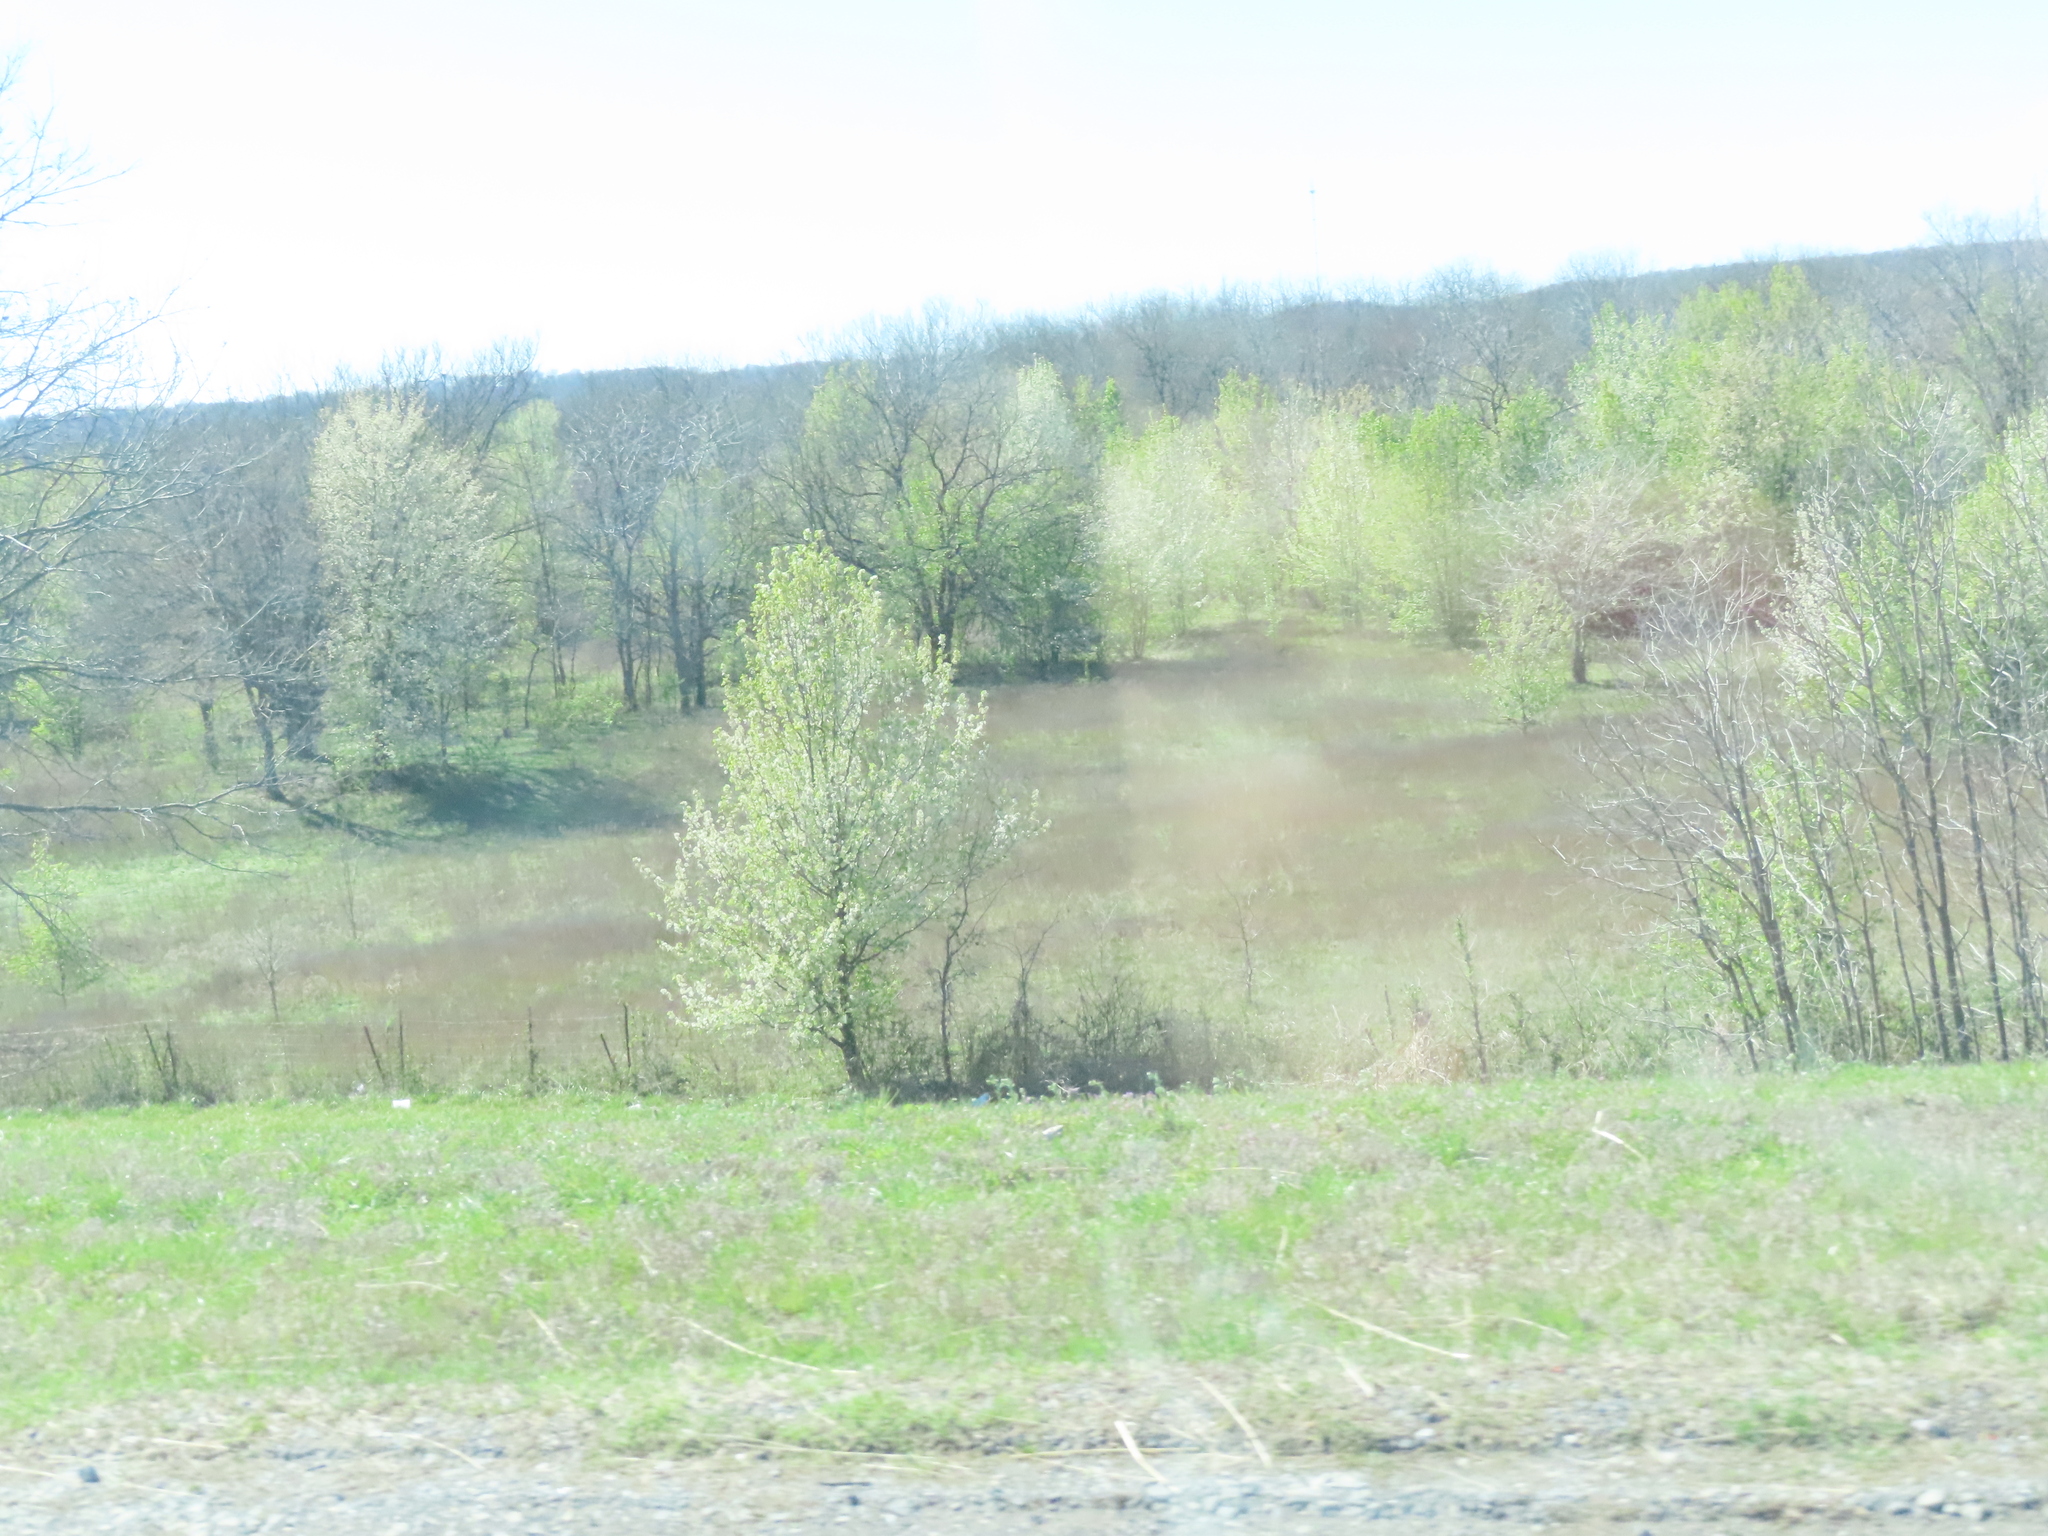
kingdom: Plantae
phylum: Tracheophyta
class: Magnoliopsida
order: Rosales
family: Rosaceae
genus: Pyrus
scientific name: Pyrus calleryana
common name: Callery pear
